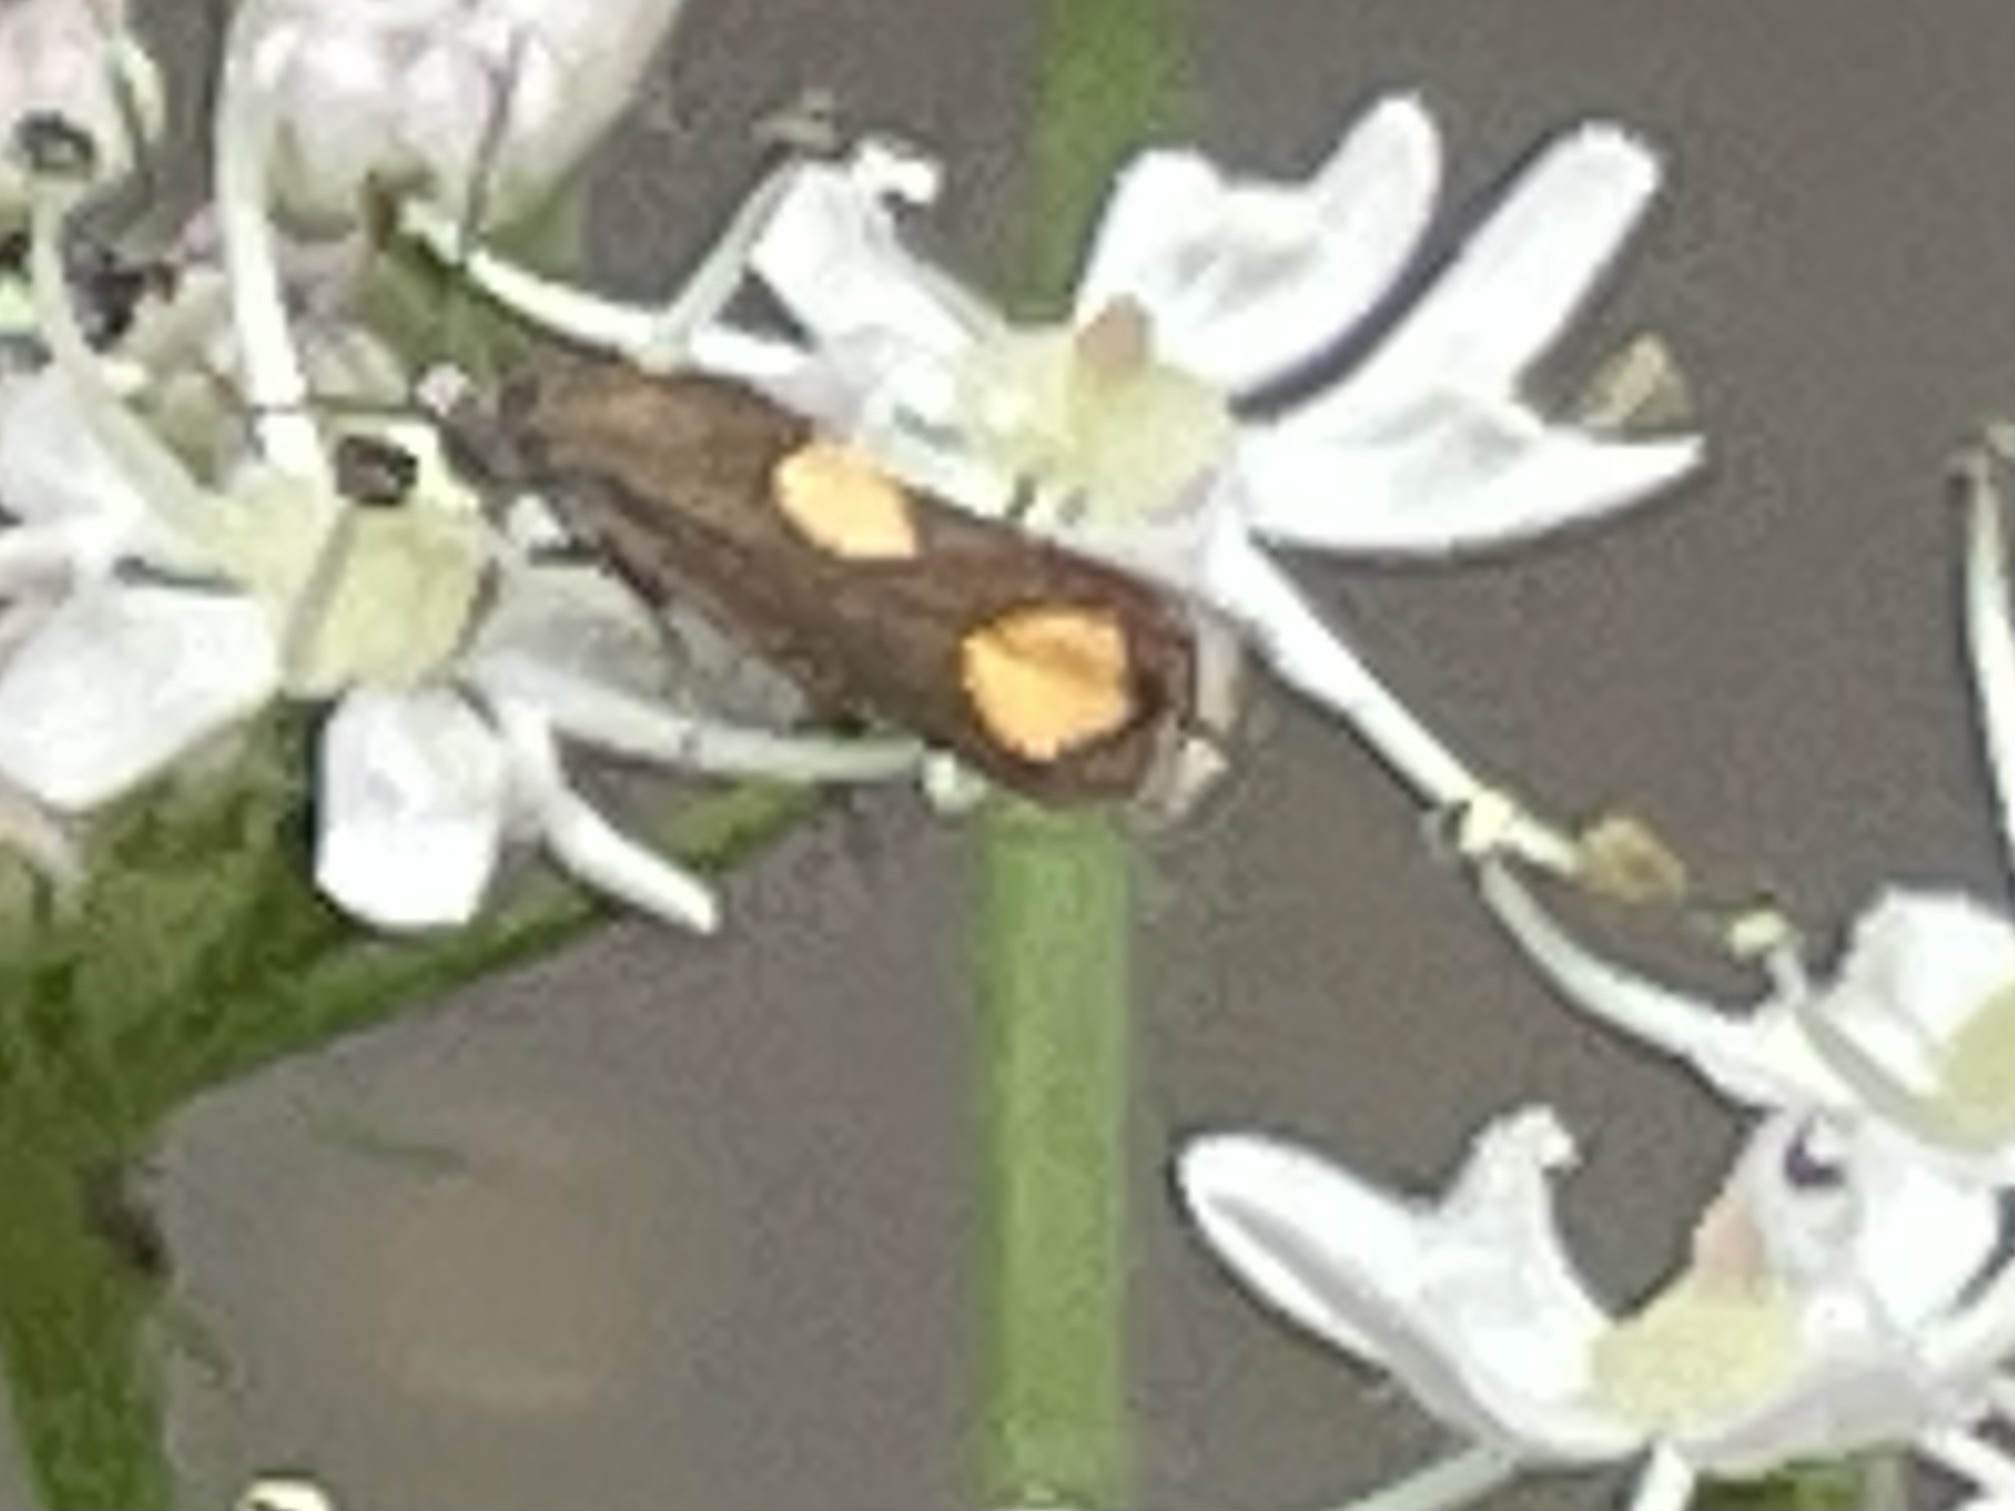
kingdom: Animalia
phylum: Arthropoda
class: Insecta
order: Lepidoptera
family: Tortricidae
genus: Pammene
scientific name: Pammene aurana
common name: Orange-spot piercer
